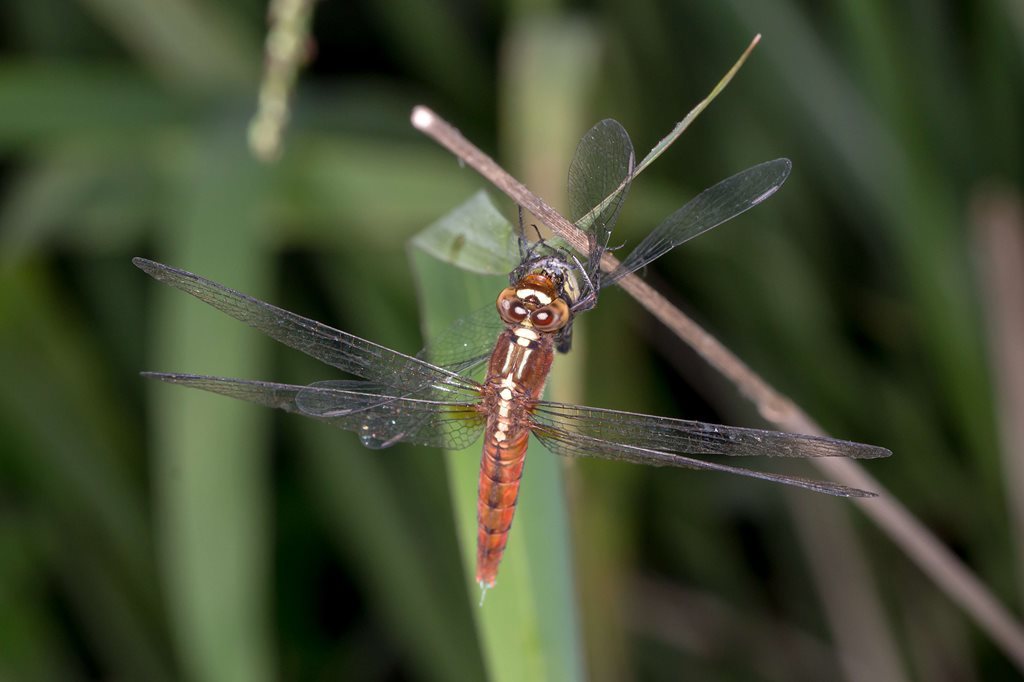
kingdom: Animalia
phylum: Arthropoda
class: Insecta
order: Odonata
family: Libellulidae
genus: Rhodothemis
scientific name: Rhodothemis lieftincki
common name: Red arrow
